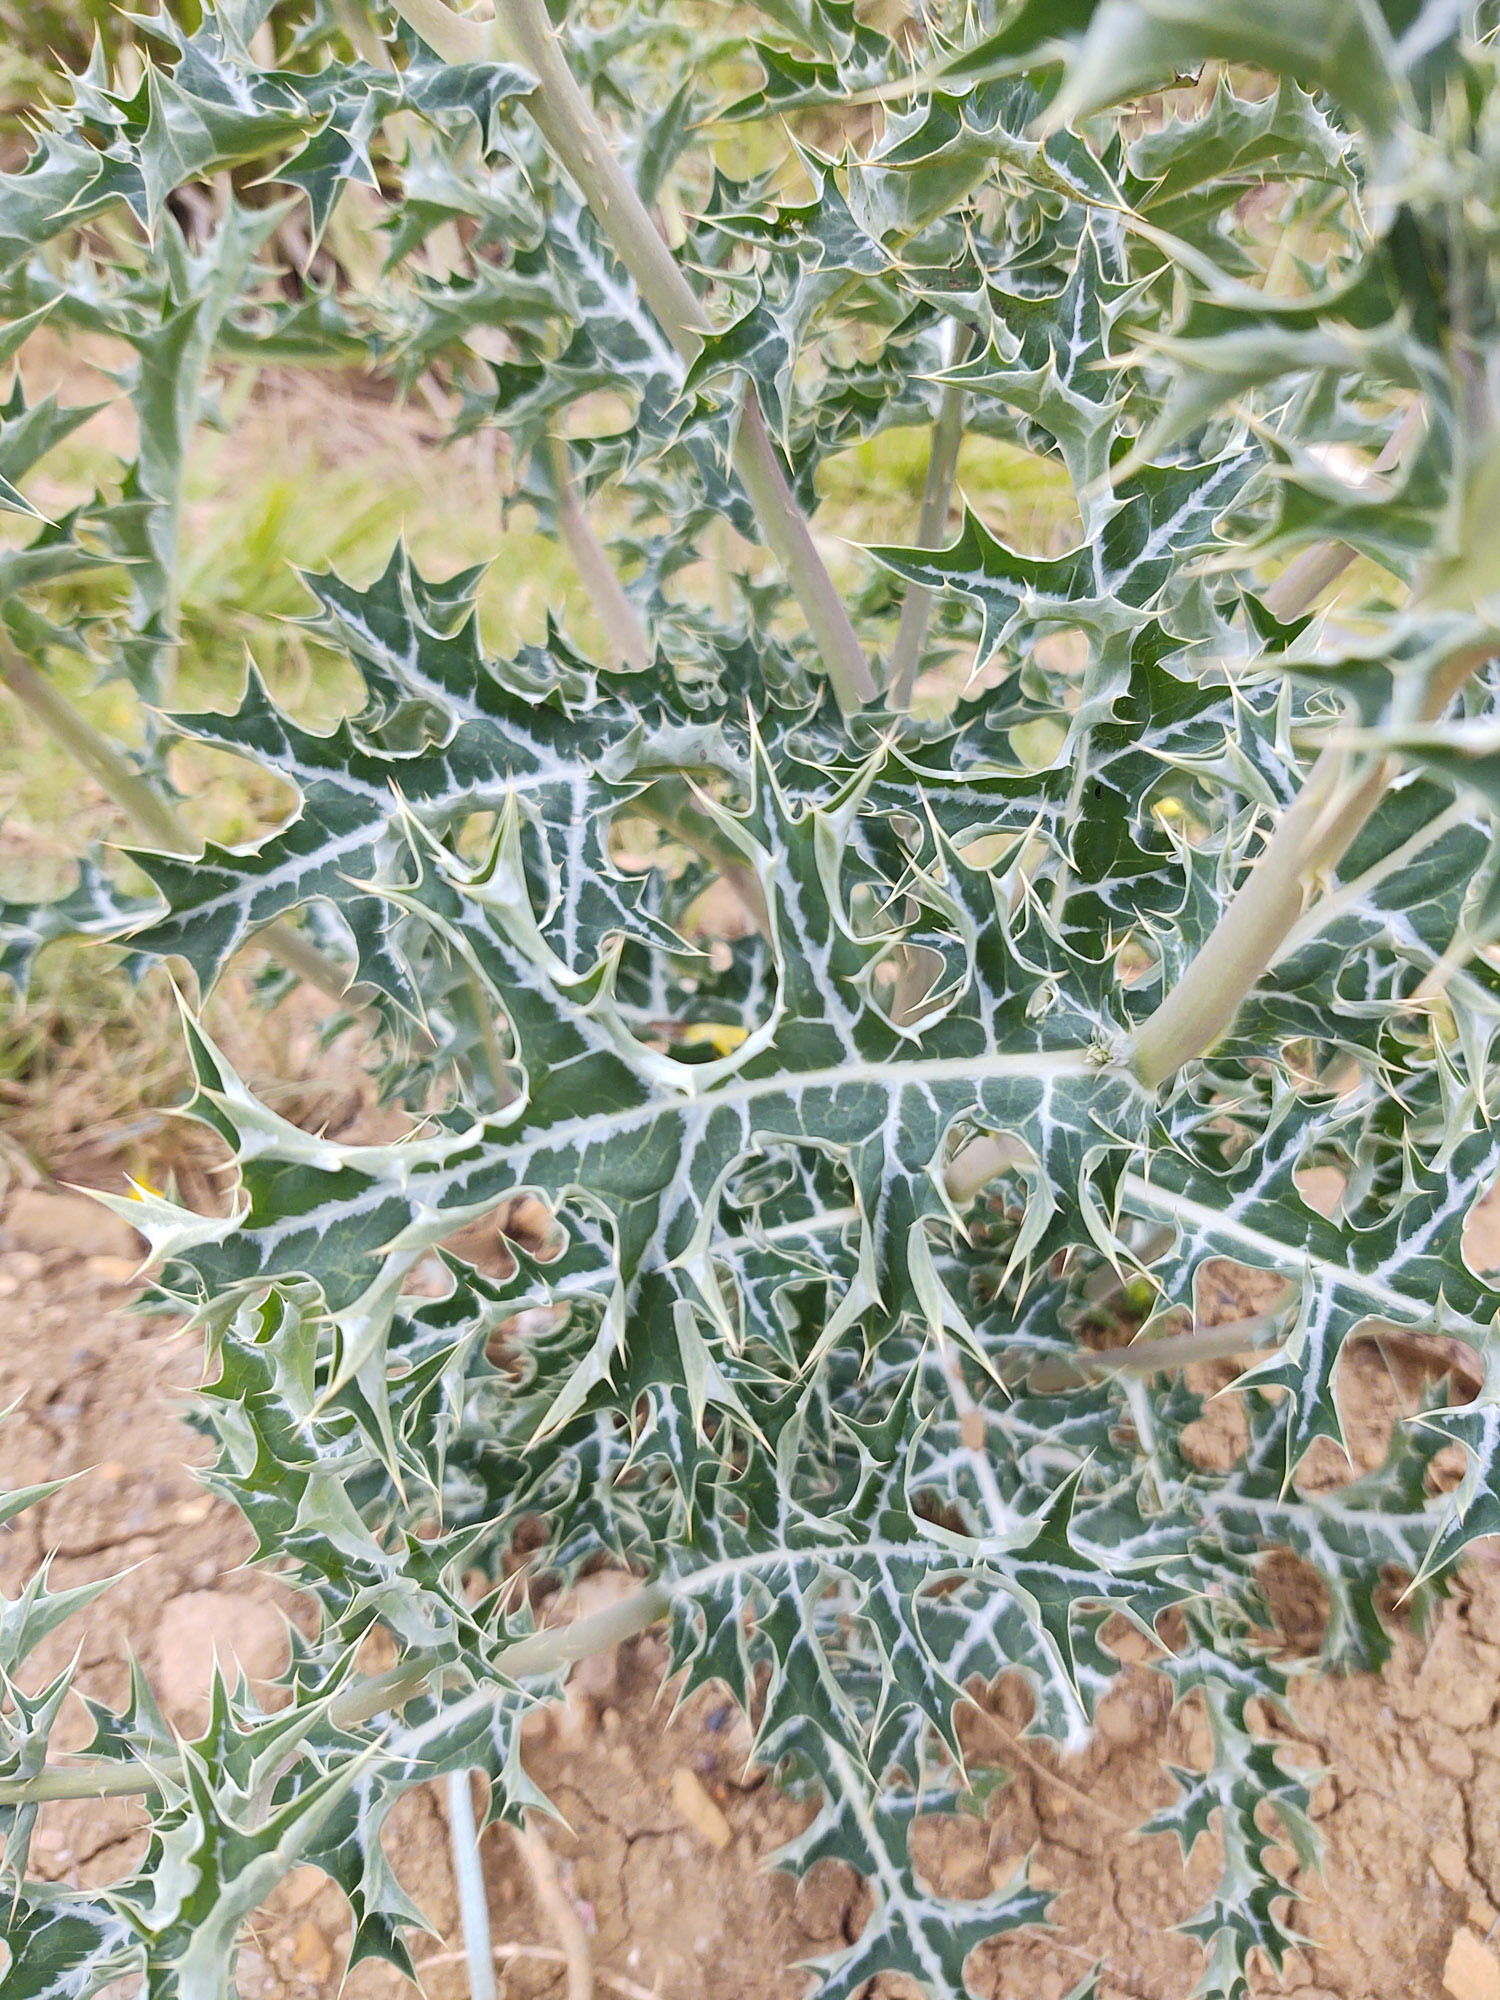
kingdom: Plantae
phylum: Tracheophyta
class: Magnoliopsida
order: Ranunculales
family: Papaveraceae
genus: Argemone
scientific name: Argemone mexicana
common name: Mexican poppy
